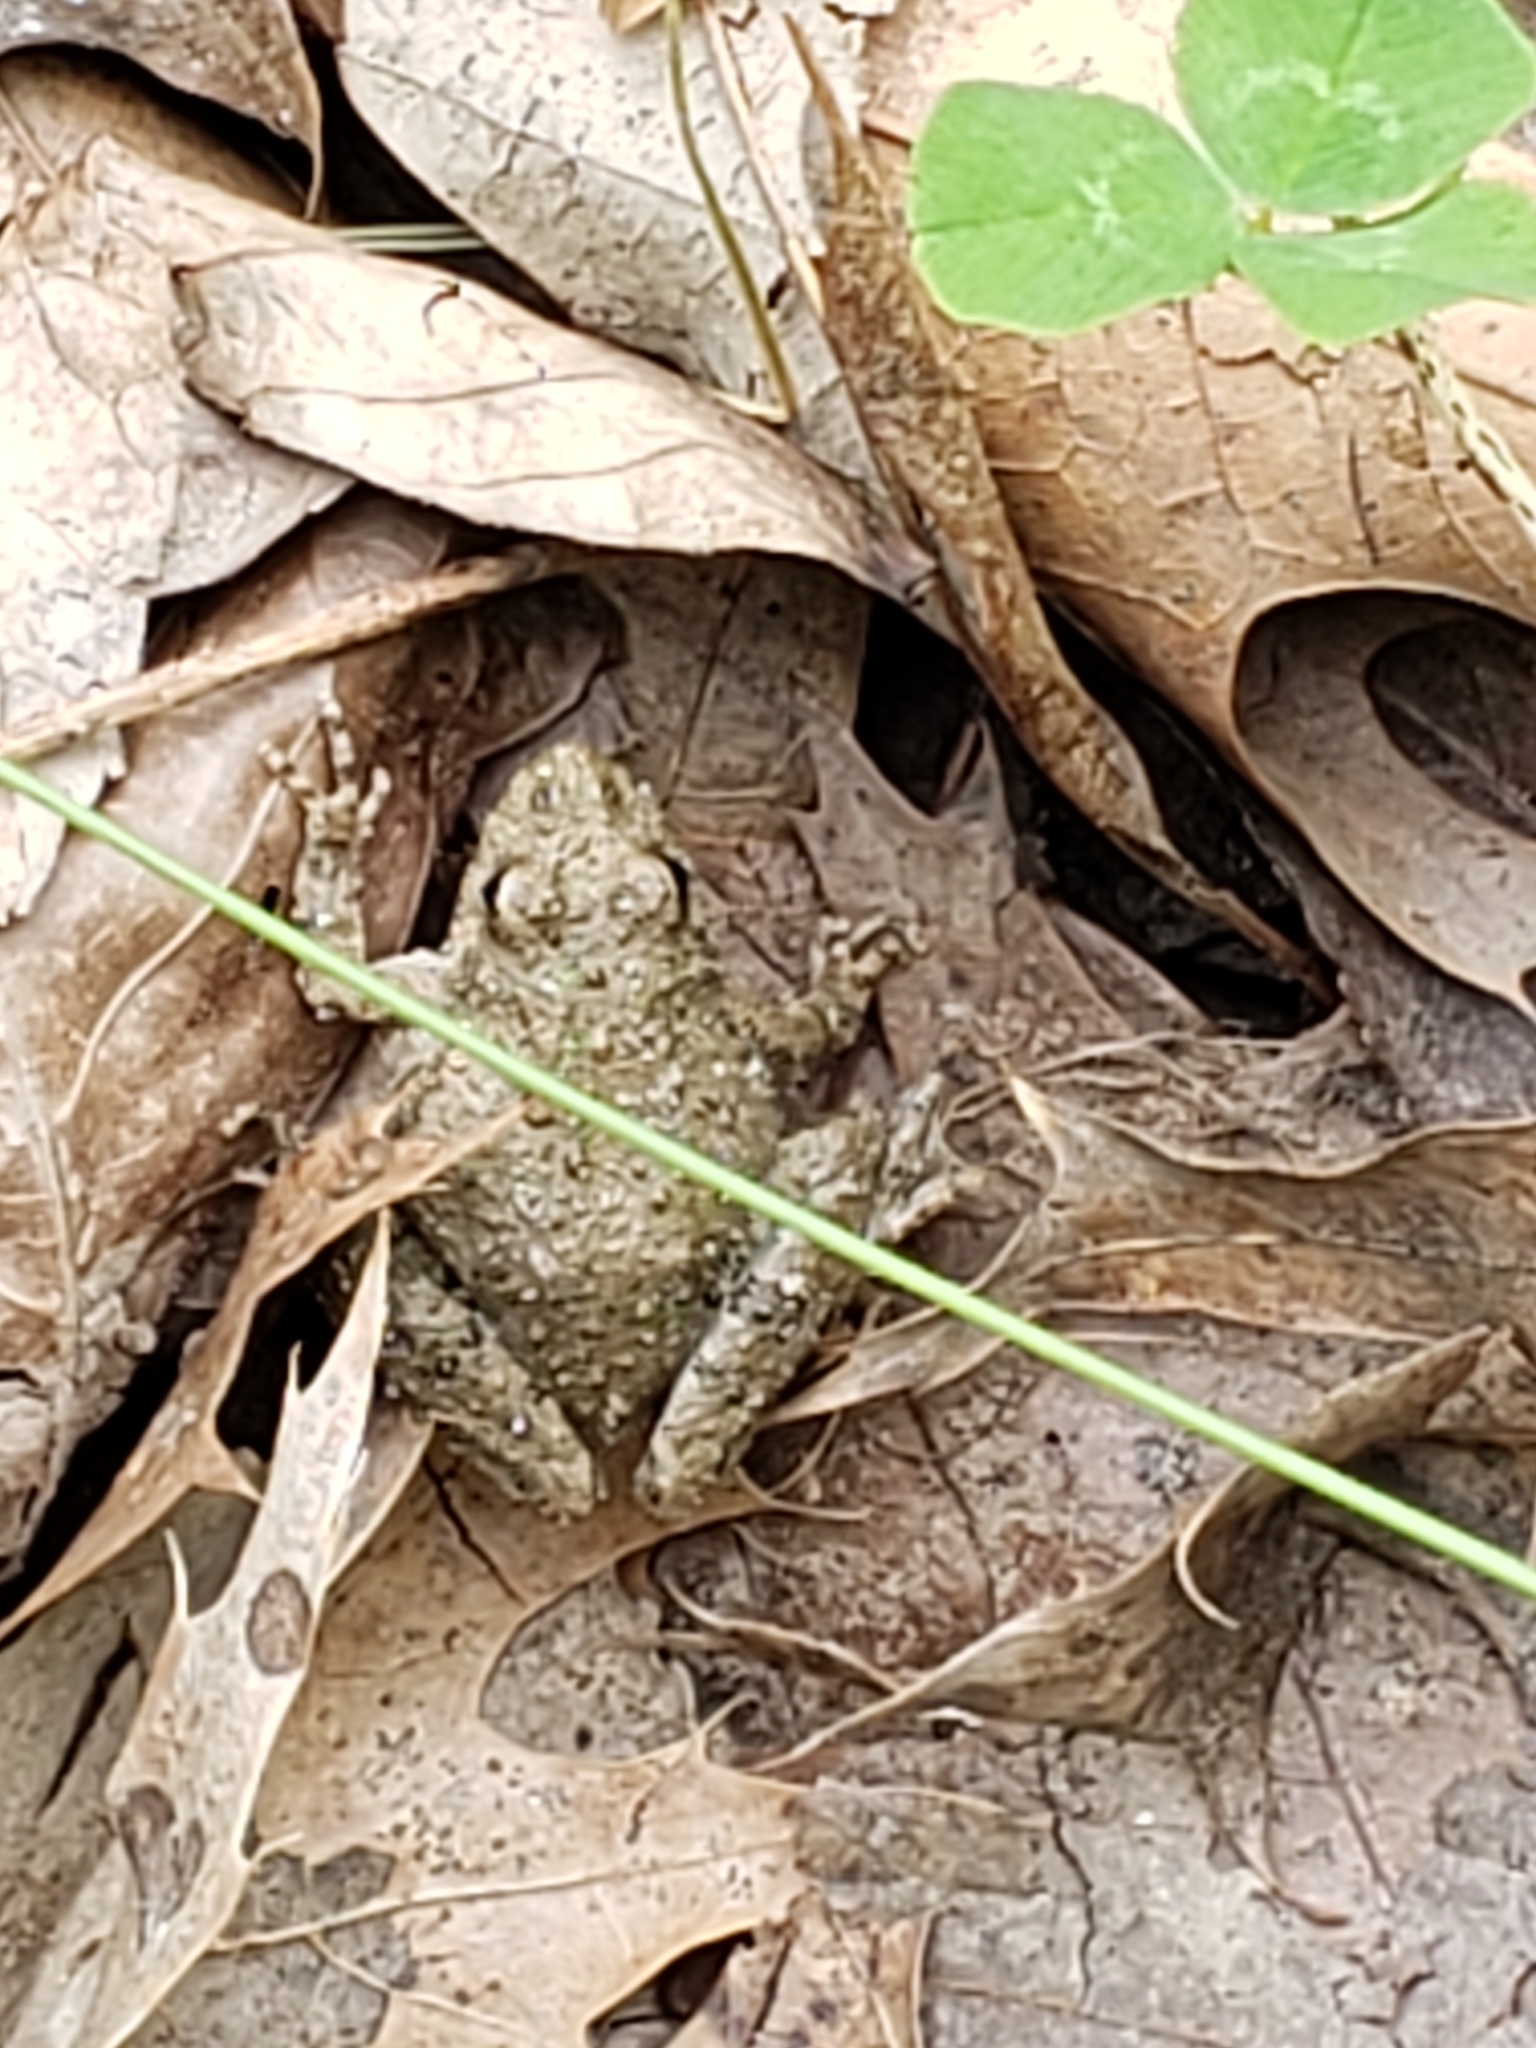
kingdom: Animalia
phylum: Chordata
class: Amphibia
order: Anura
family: Hylidae
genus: Acris
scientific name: Acris blanchardi
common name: Blanchard's cricket frog
